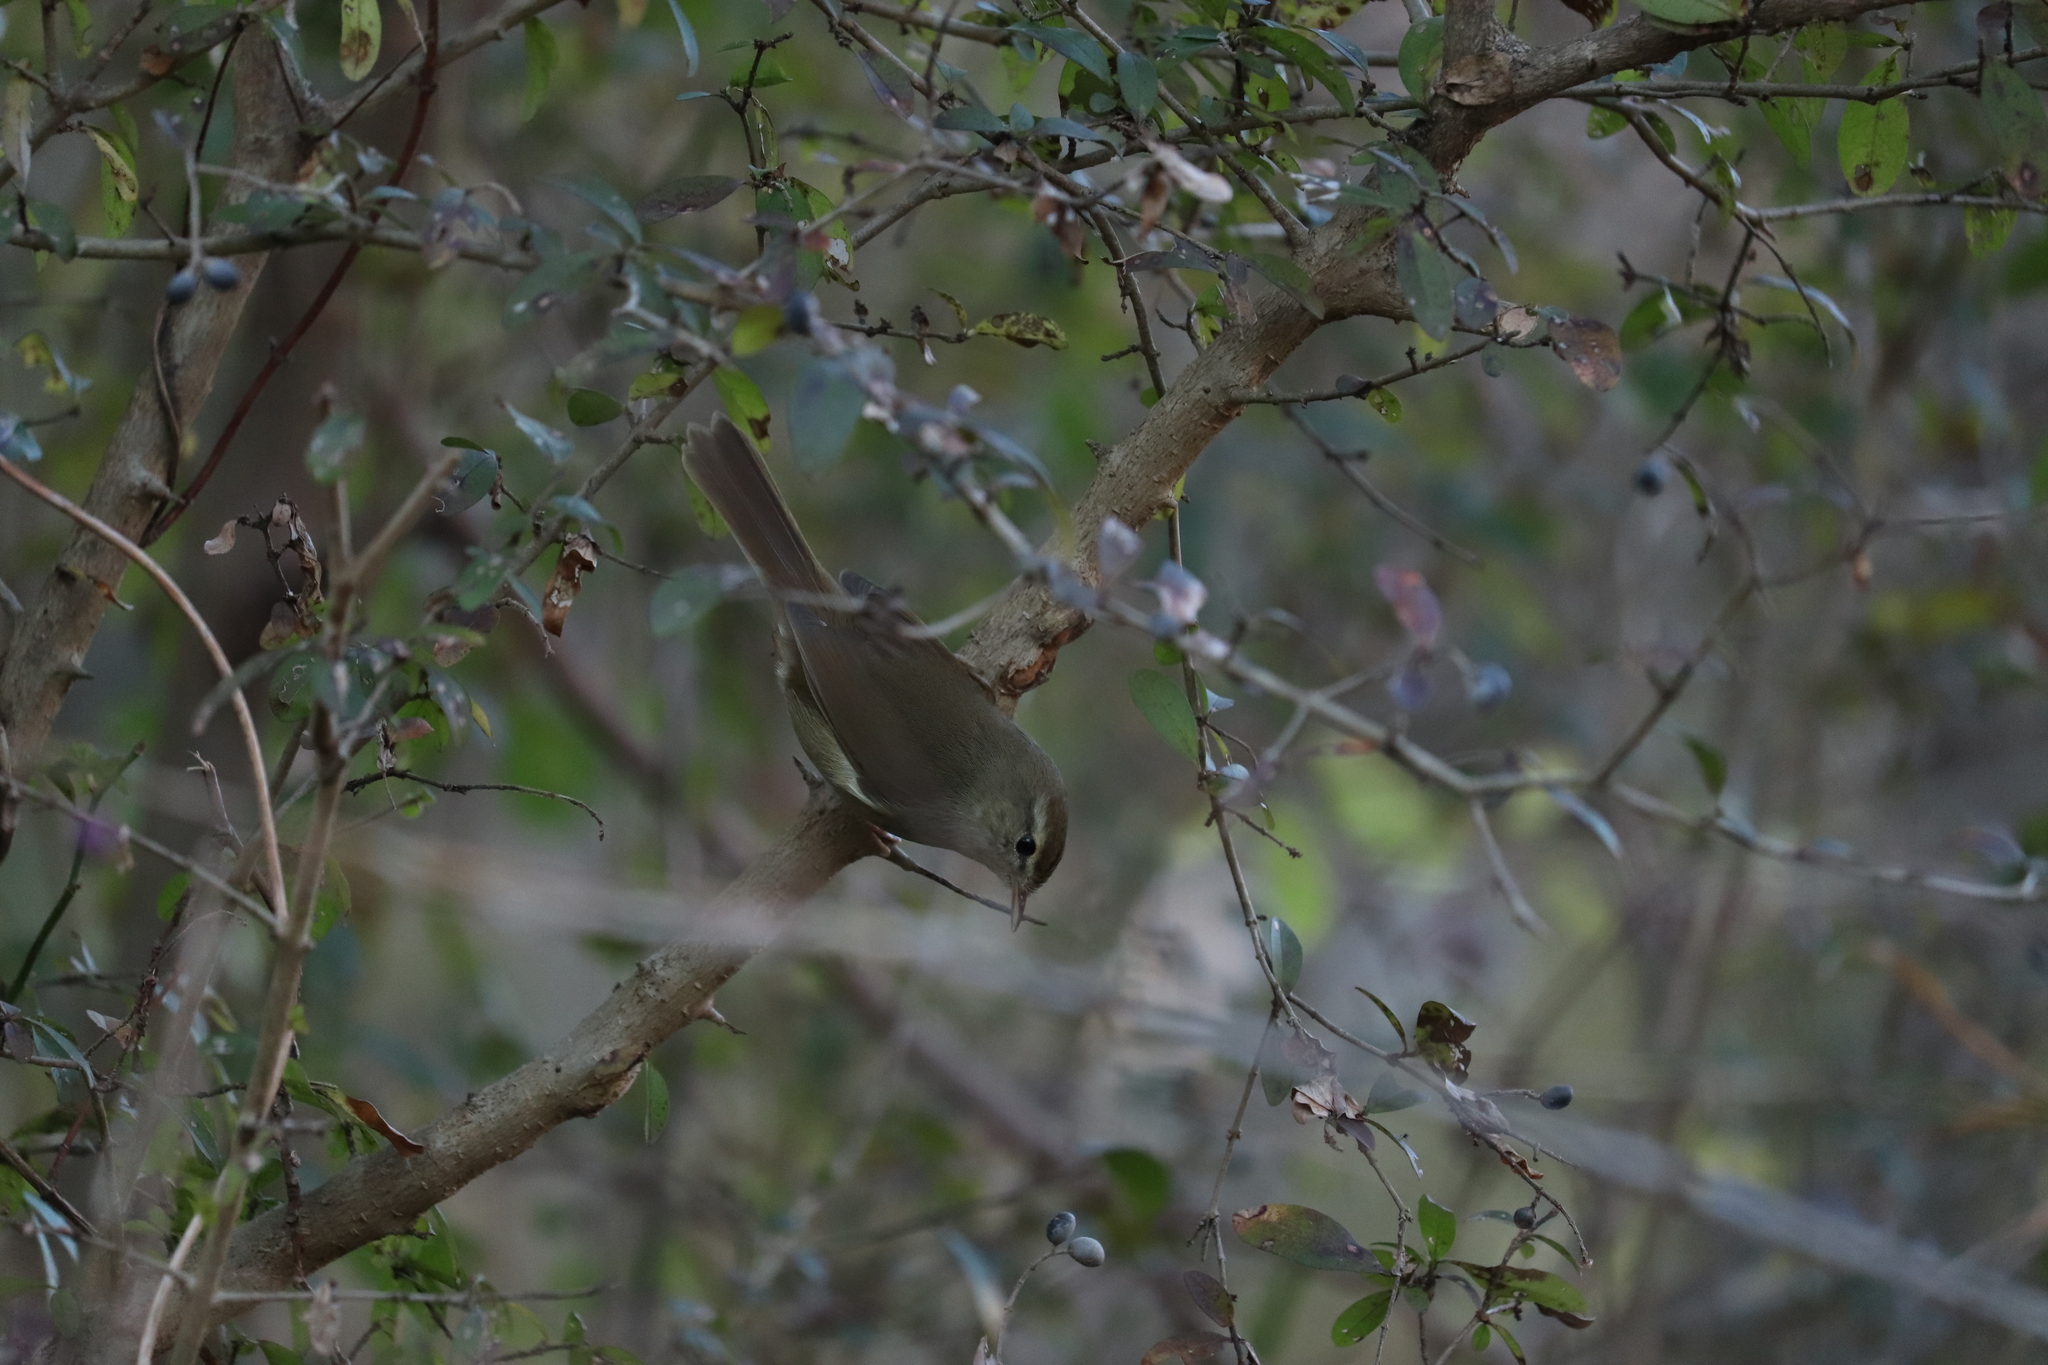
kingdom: Animalia
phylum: Chordata
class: Aves
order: Passeriformes
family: Cettiidae
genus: Horornis
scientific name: Horornis diphone
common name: Japanese bush warbler
